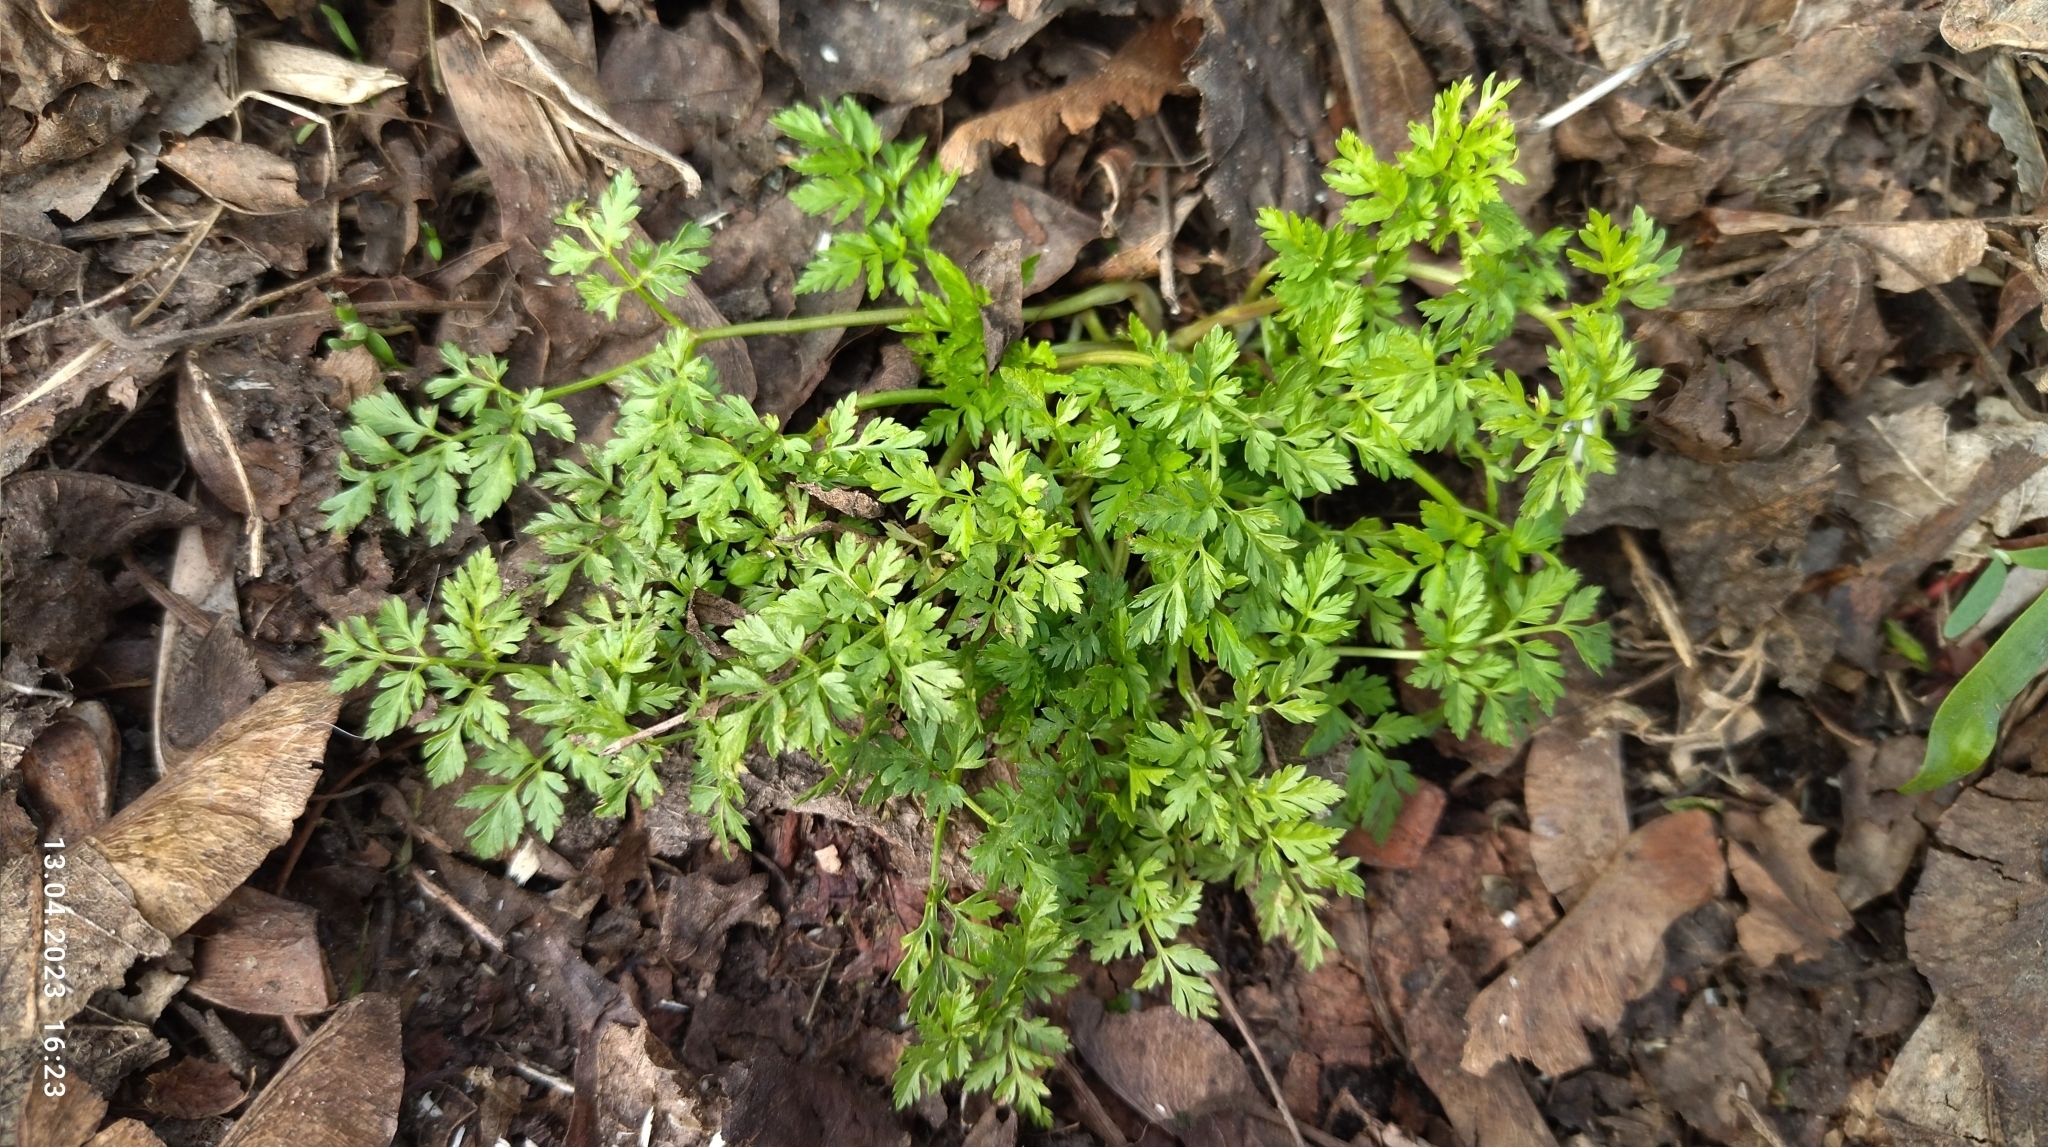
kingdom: Plantae
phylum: Tracheophyta
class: Magnoliopsida
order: Apiales
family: Apiaceae
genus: Anthriscus
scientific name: Anthriscus sylvestris
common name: Cow parsley
